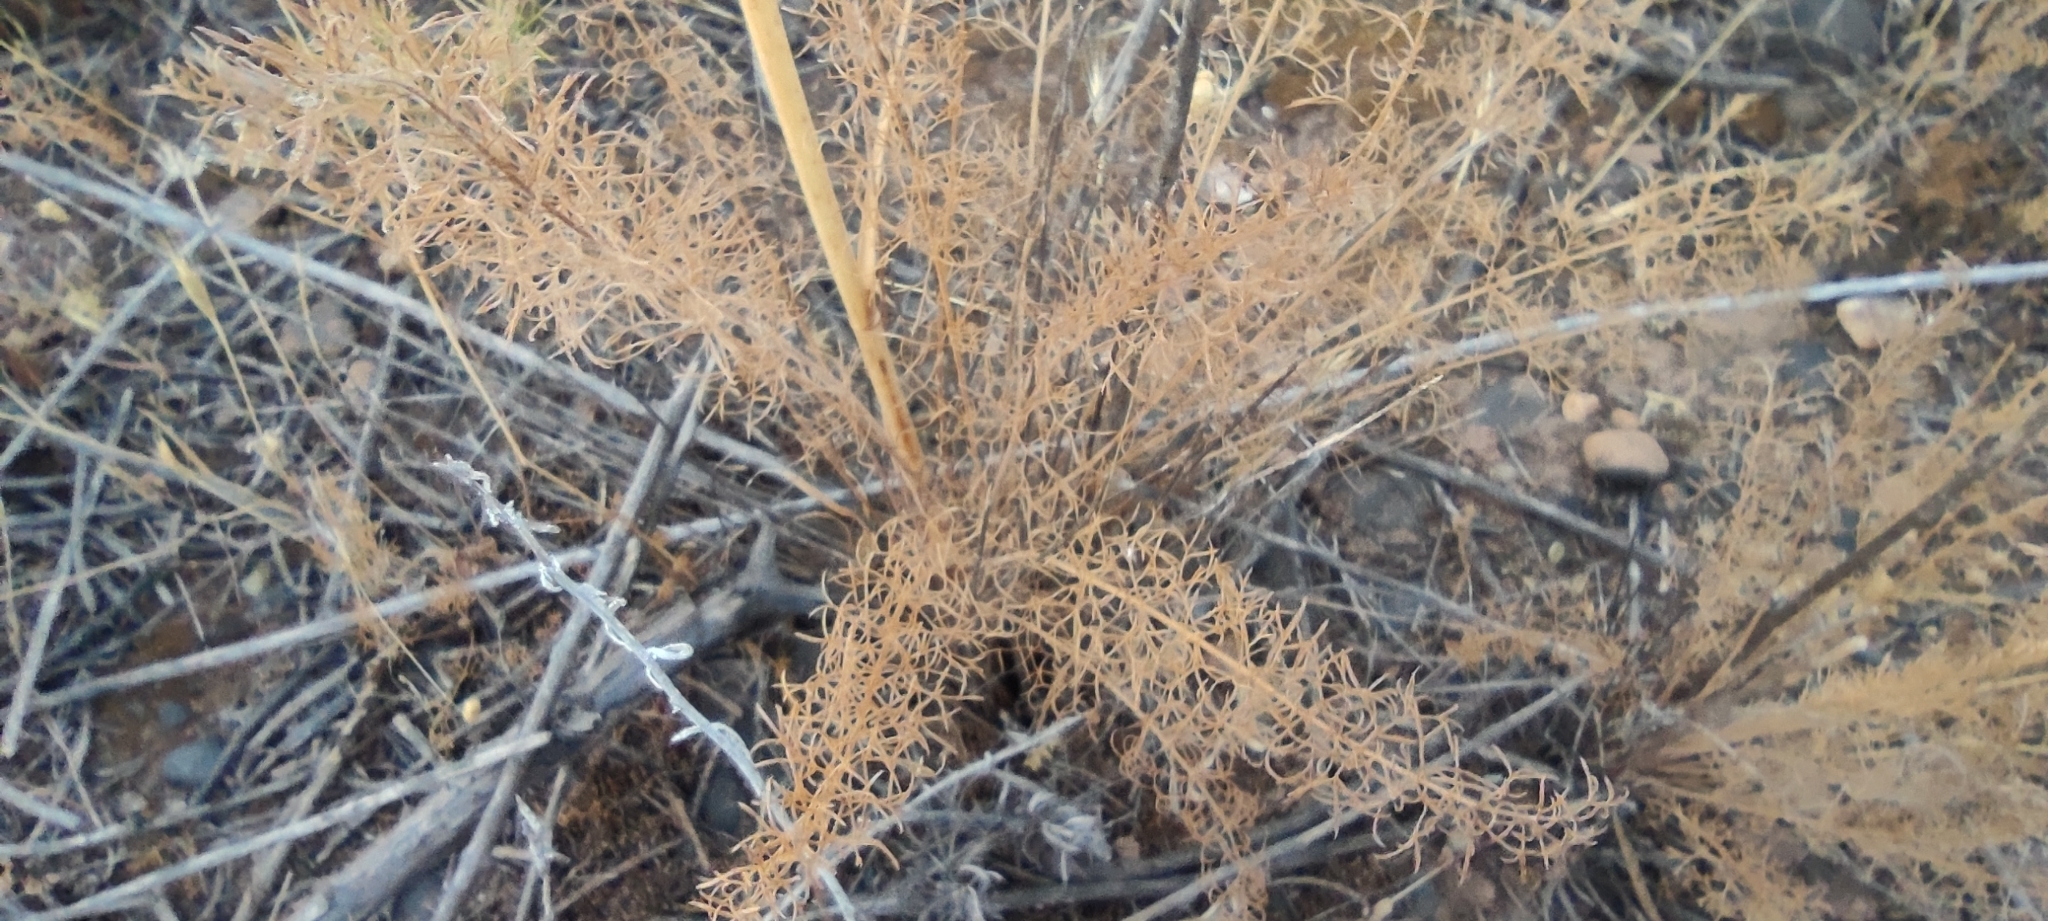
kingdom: Plantae
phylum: Tracheophyta
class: Magnoliopsida
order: Apiales
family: Apiaceae
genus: Daucus
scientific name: Daucus setifolius
